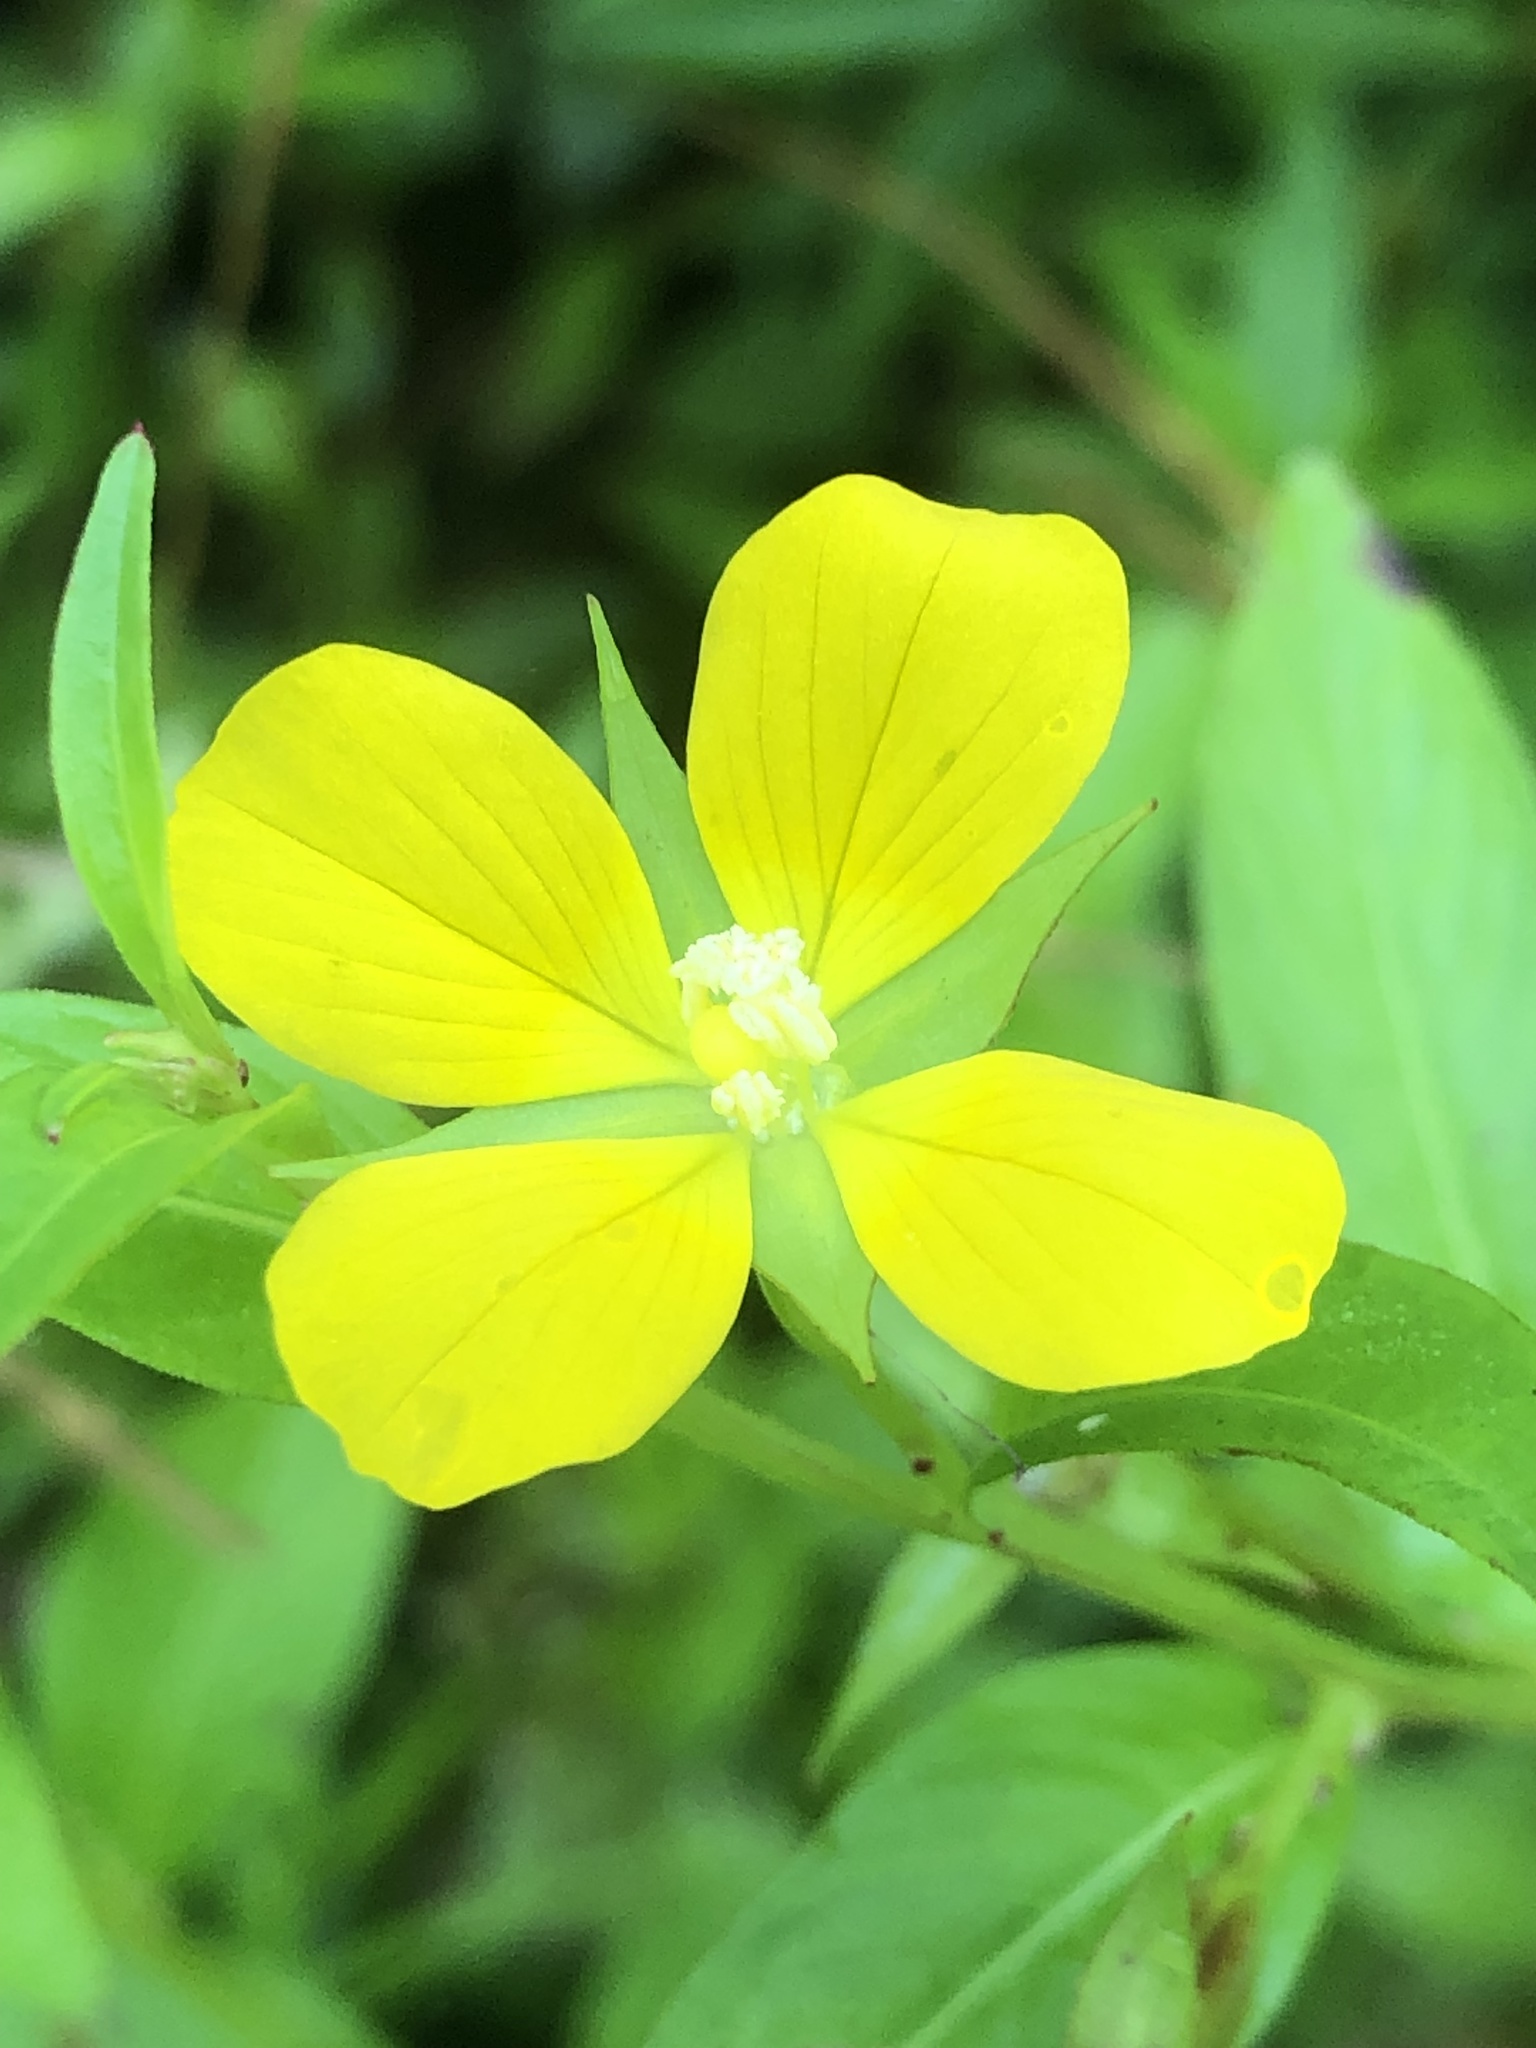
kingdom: Plantae
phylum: Tracheophyta
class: Magnoliopsida
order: Myrtales
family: Onagraceae
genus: Ludwigia
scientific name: Ludwigia decurrens
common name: Winged water-primrose
